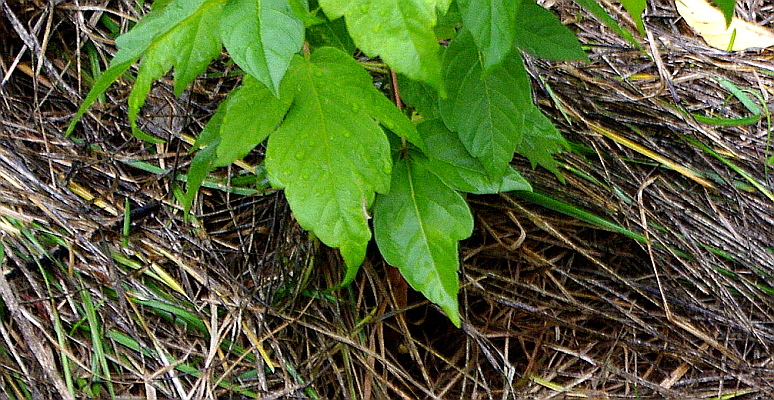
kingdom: Plantae
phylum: Tracheophyta
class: Magnoliopsida
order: Sapindales
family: Sapindaceae
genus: Acer
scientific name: Acer negundo
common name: Ashleaf maple
